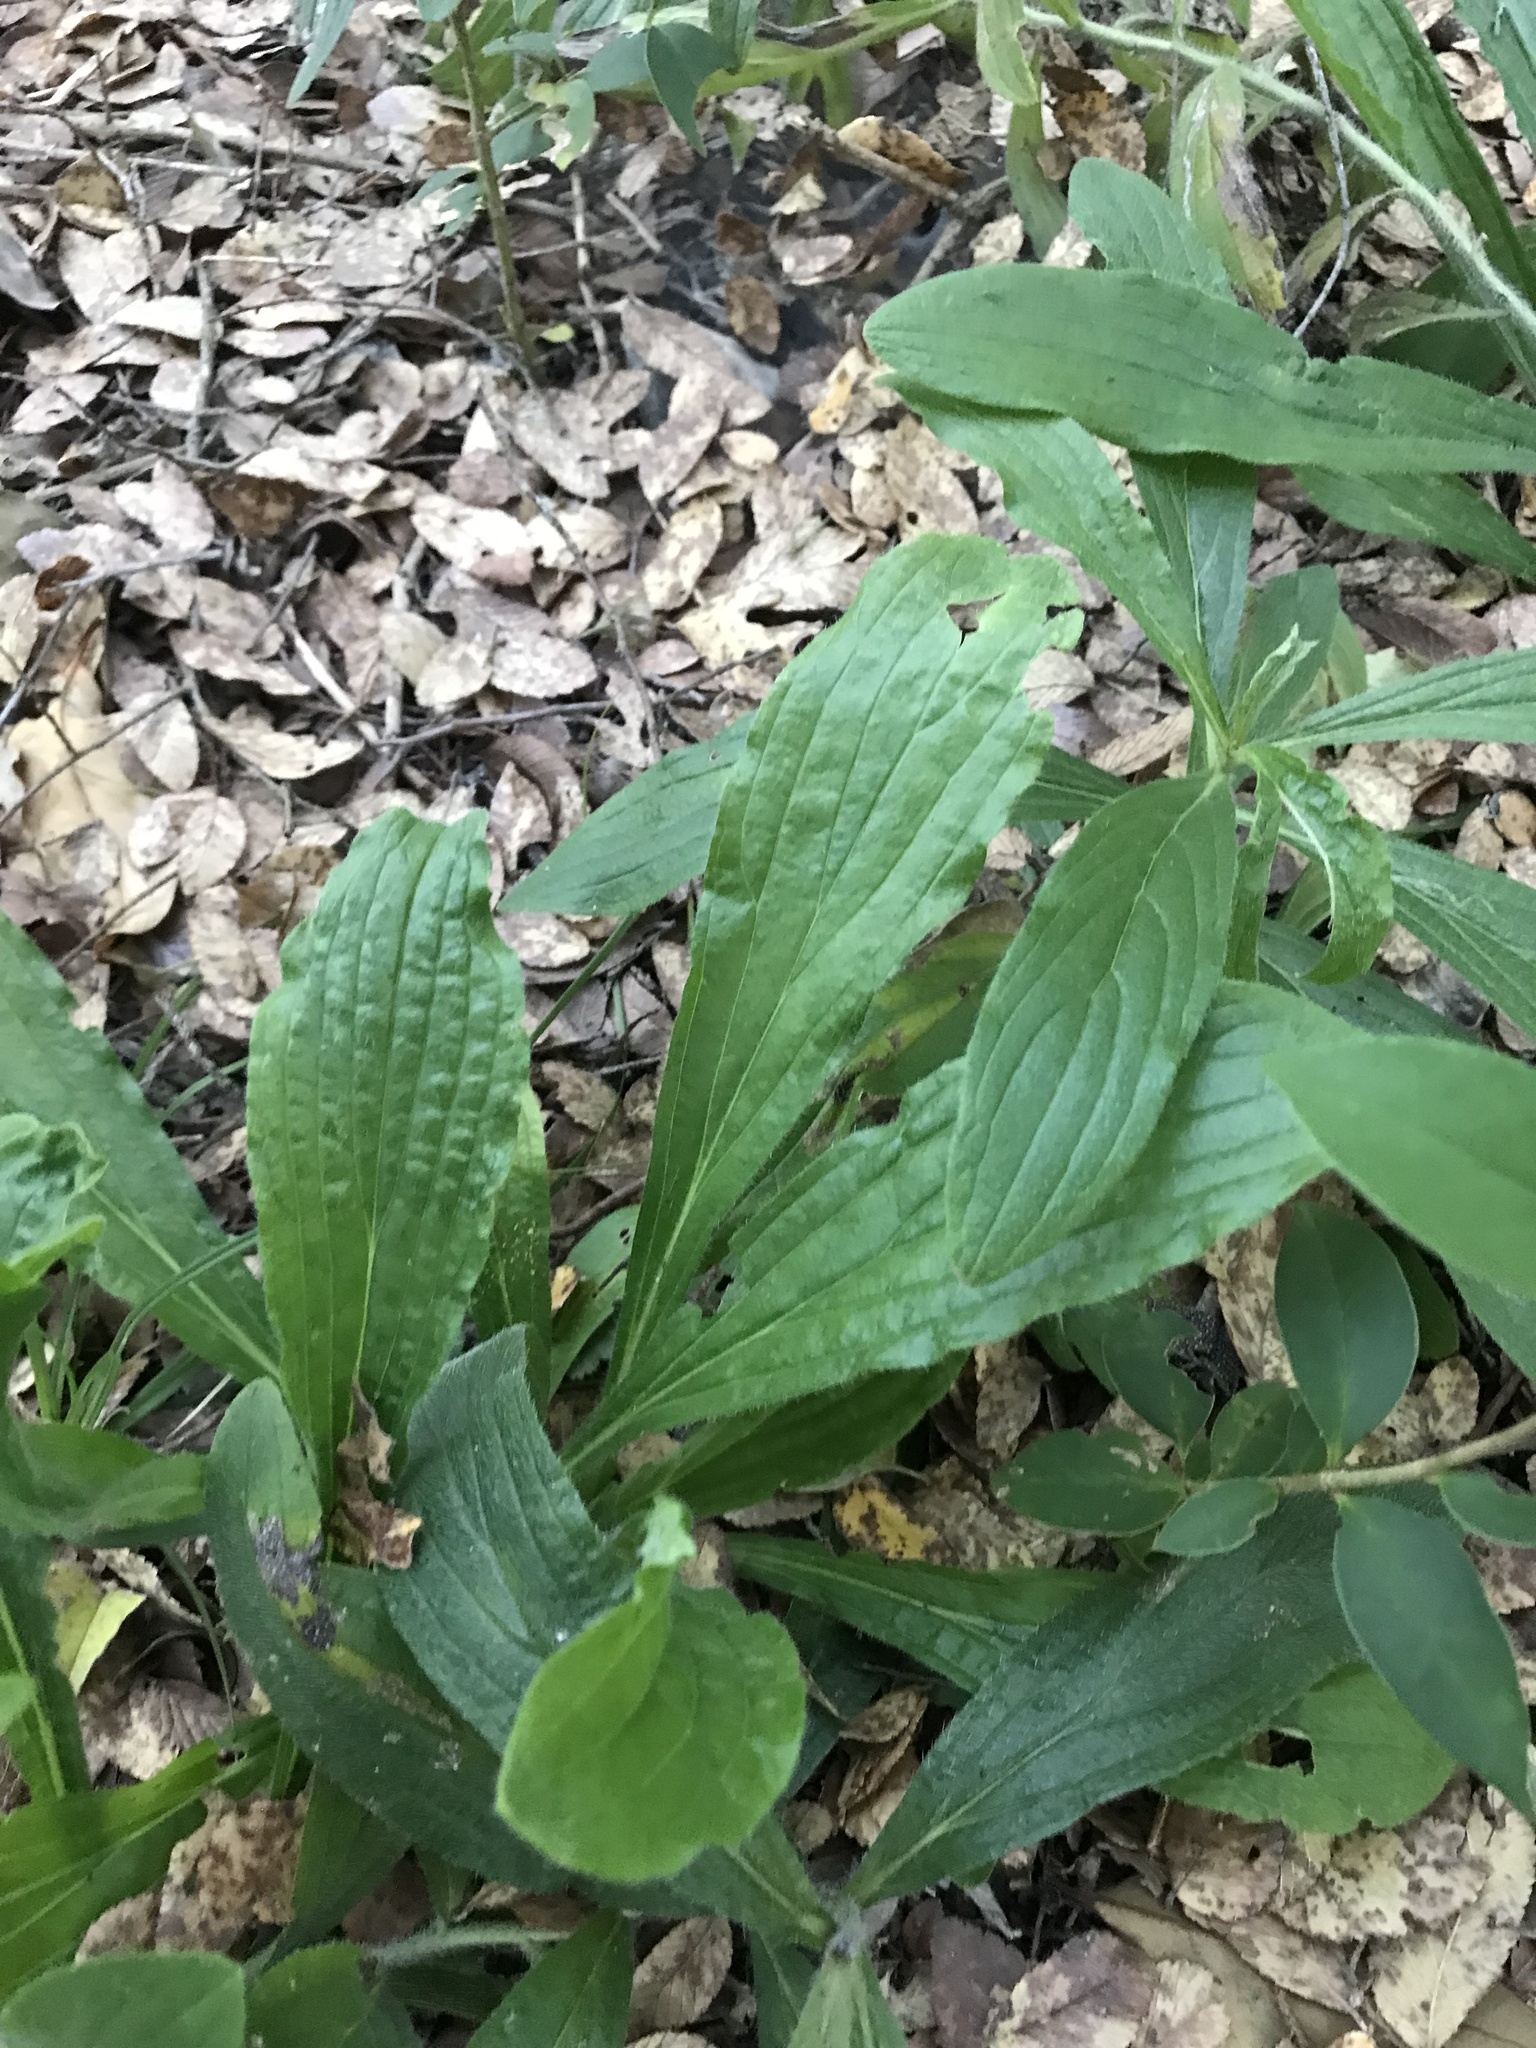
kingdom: Plantae
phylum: Tracheophyta
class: Magnoliopsida
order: Boraginales
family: Boraginaceae
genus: Lithospermum
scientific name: Lithospermum caroliniense
